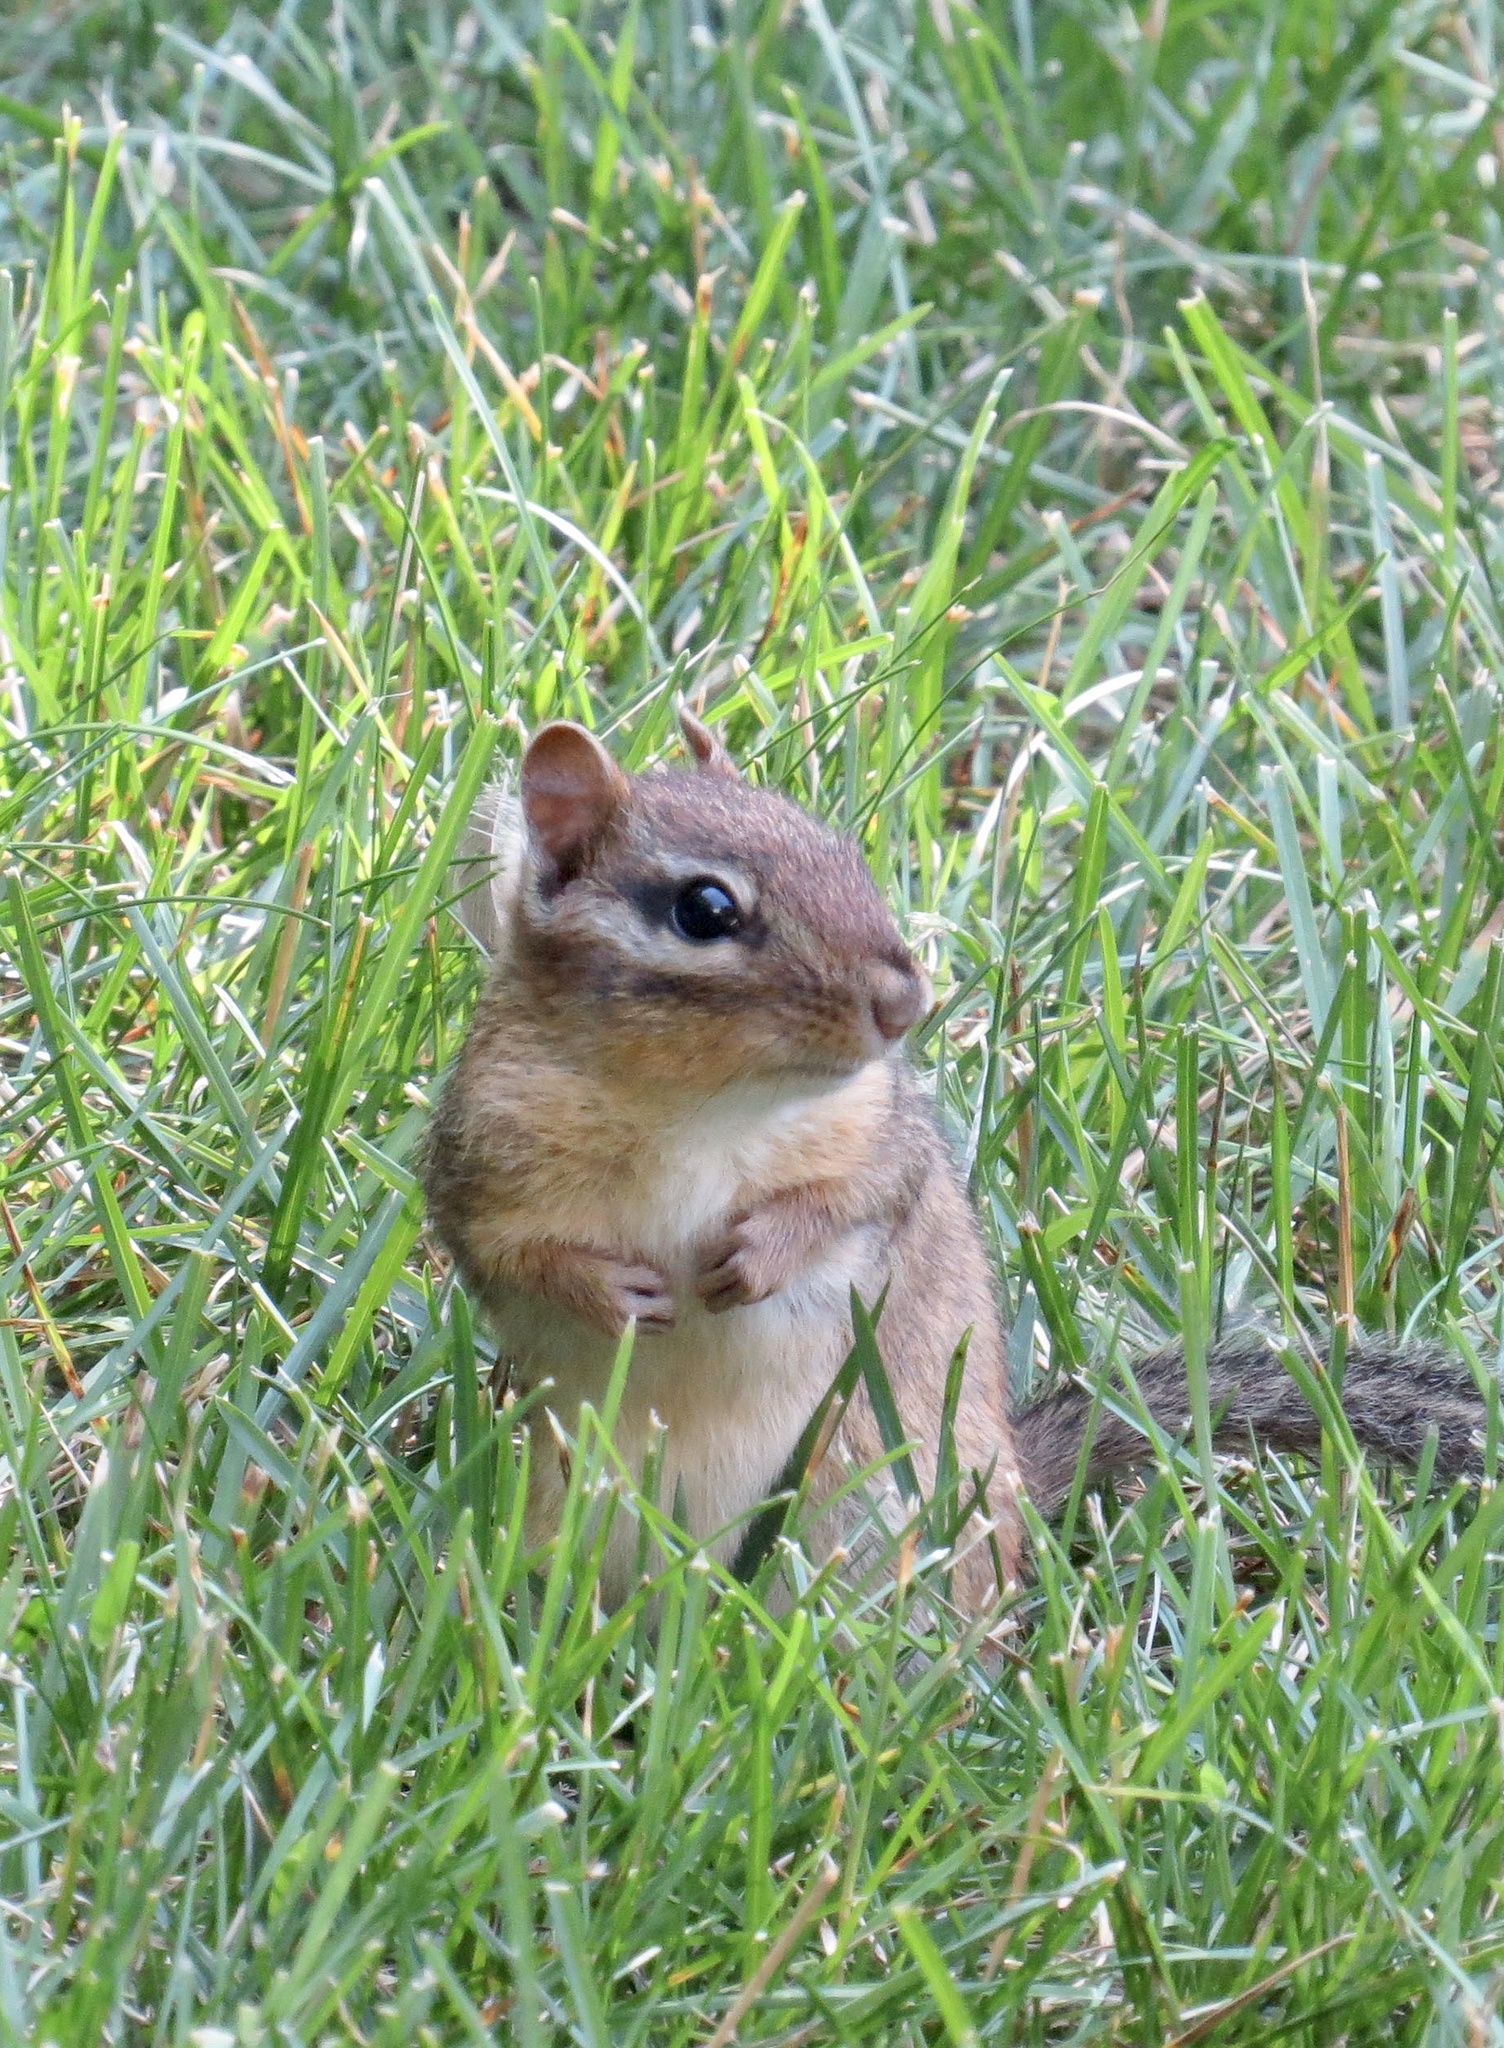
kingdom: Animalia
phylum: Chordata
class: Mammalia
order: Rodentia
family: Sciuridae
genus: Tamias
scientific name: Tamias striatus
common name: Eastern chipmunk
